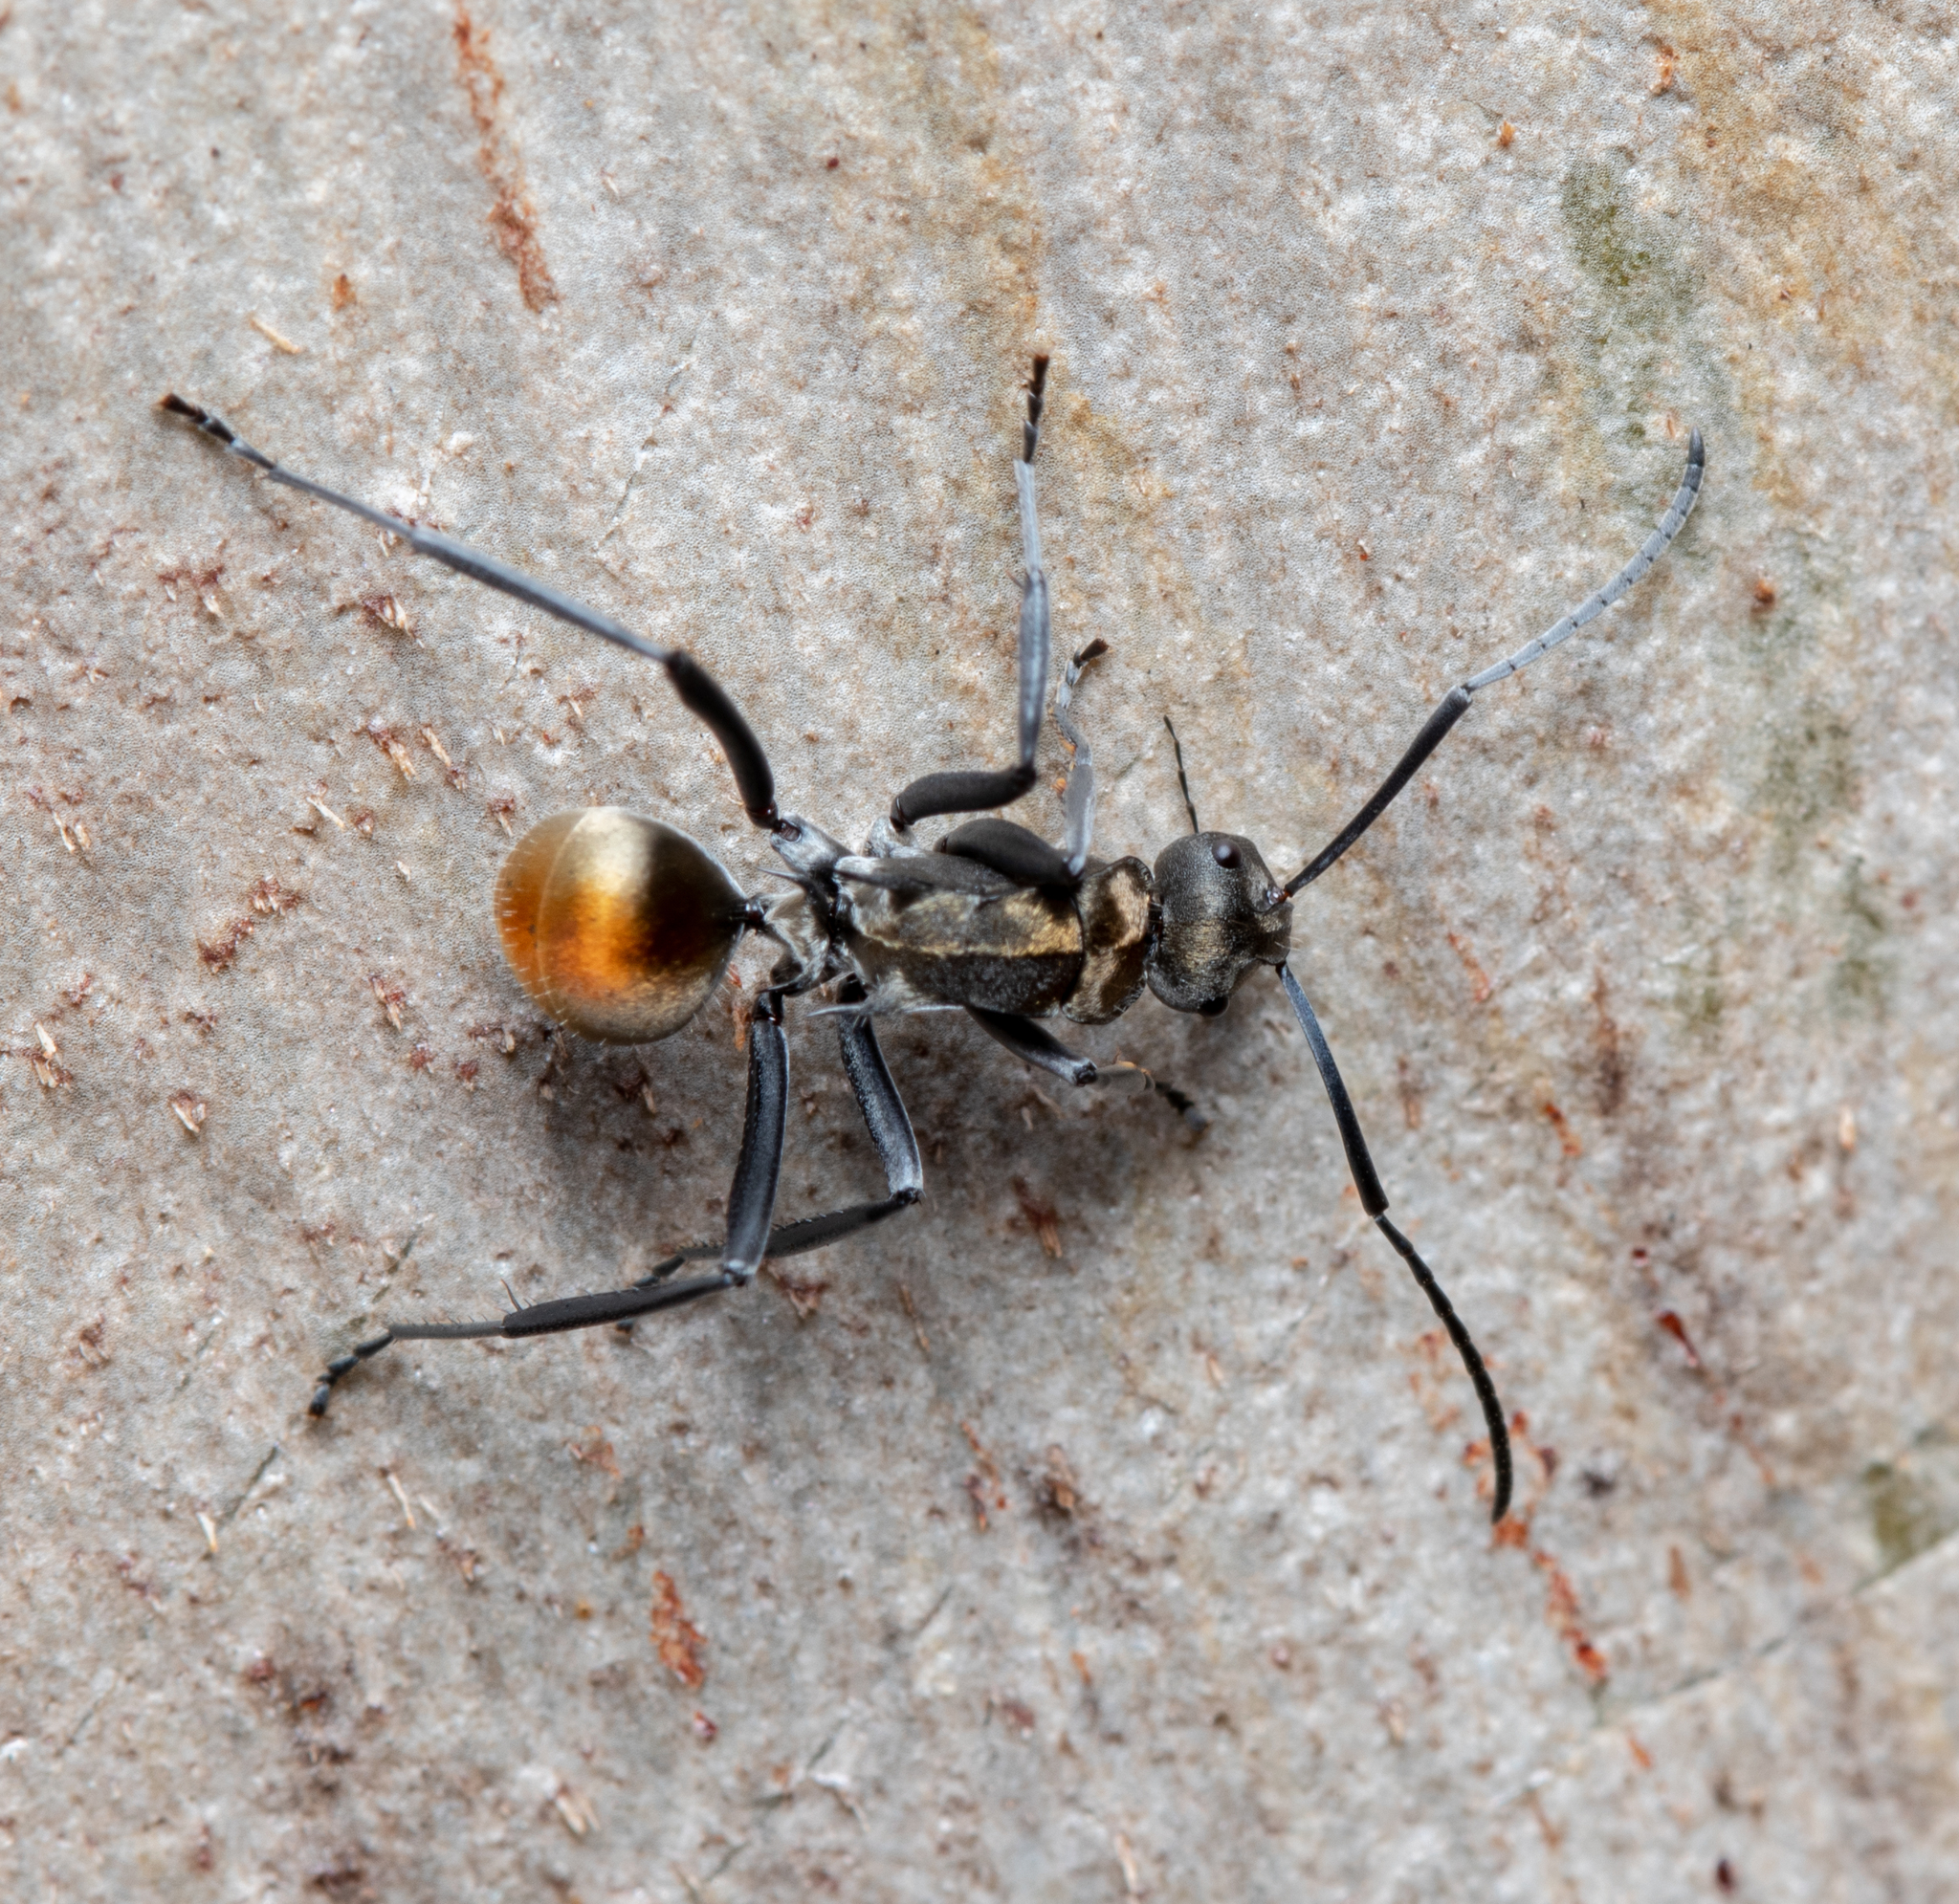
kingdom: Animalia
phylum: Arthropoda
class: Insecta
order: Hymenoptera
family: Formicidae
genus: Polyrhachis
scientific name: Polyrhachis ammon
